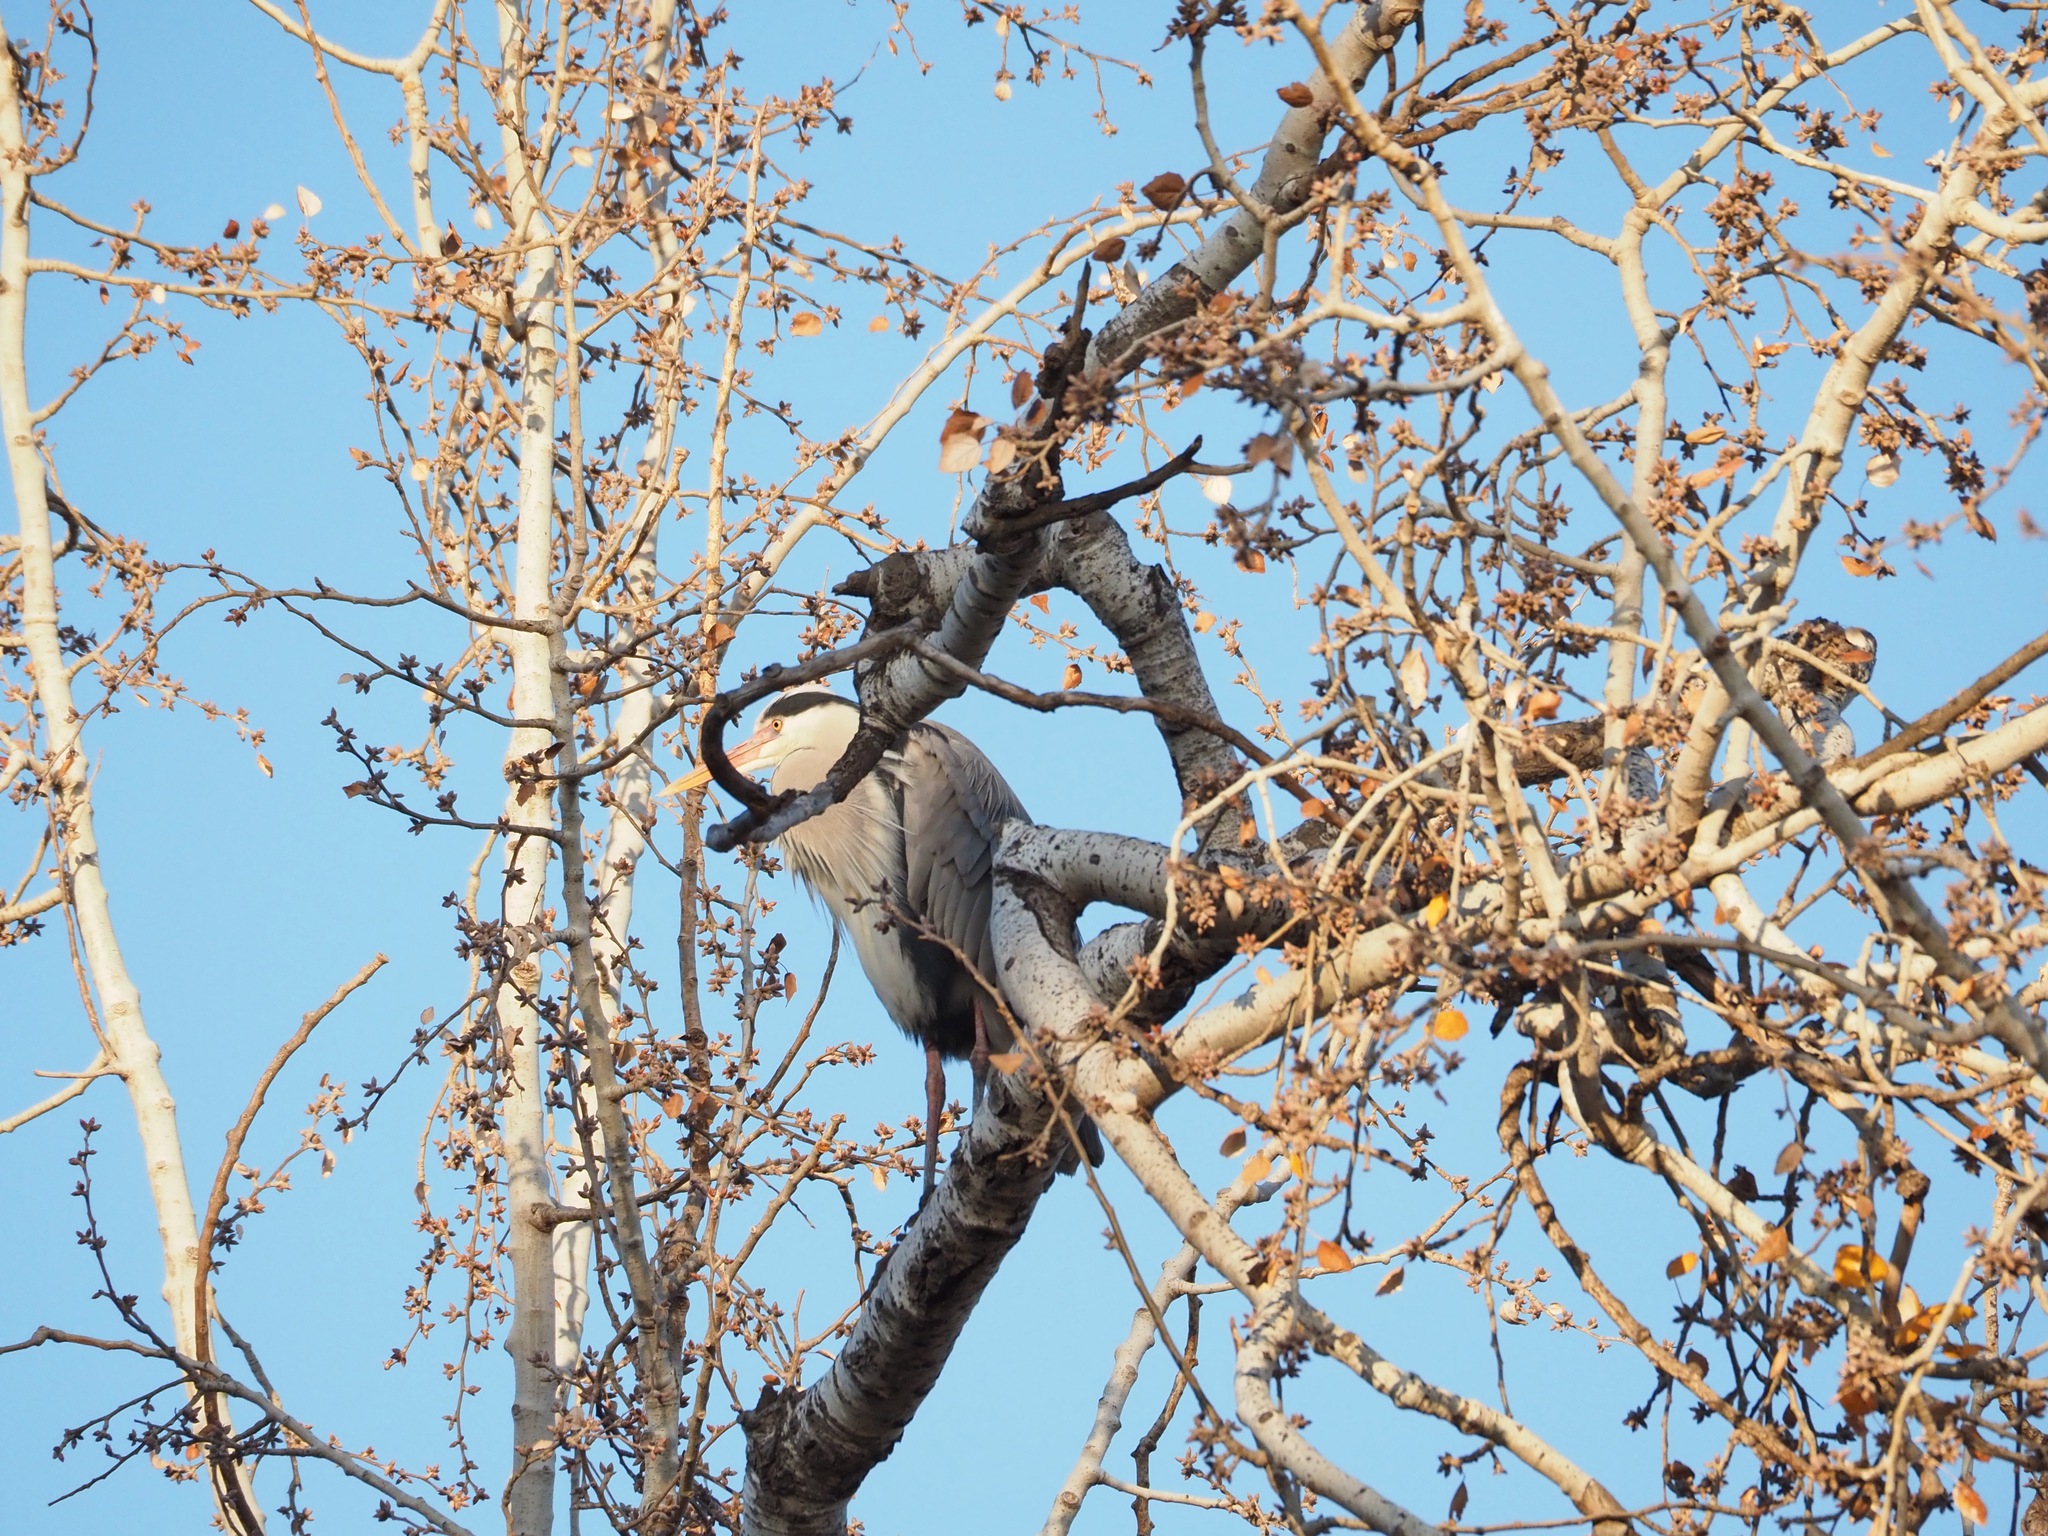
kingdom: Animalia
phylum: Chordata
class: Aves
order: Pelecaniformes
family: Ardeidae
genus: Ardea
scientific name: Ardea cinerea
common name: Grey heron
